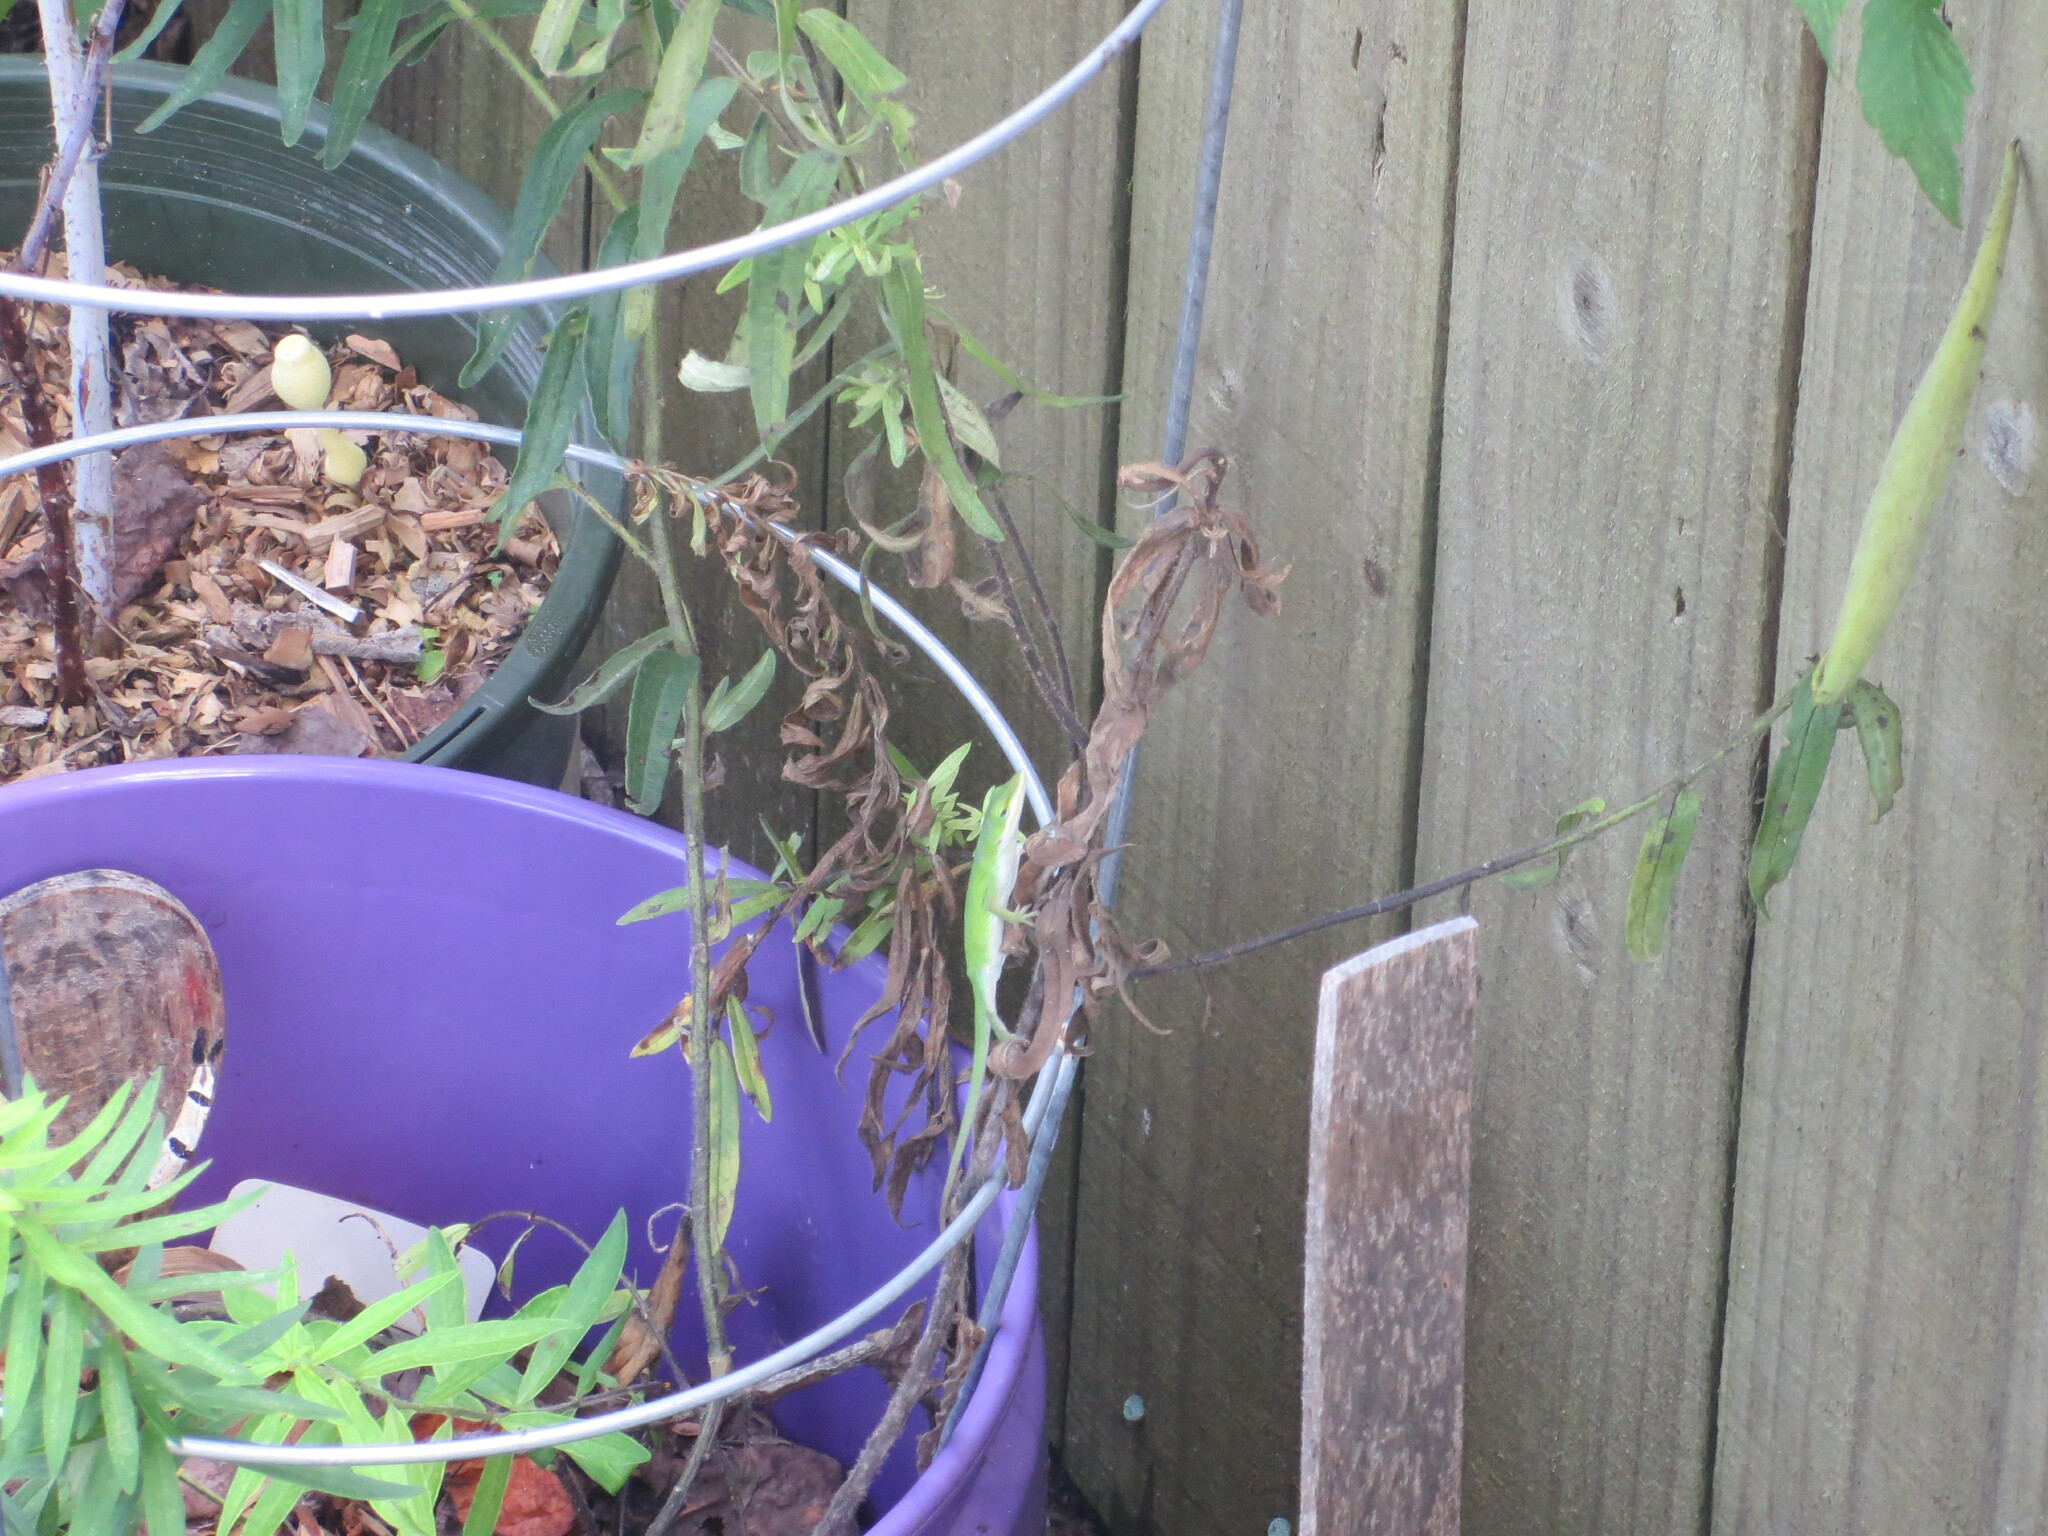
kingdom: Animalia
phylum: Chordata
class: Squamata
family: Dactyloidae
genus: Anolis
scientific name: Anolis carolinensis
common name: Green anole
